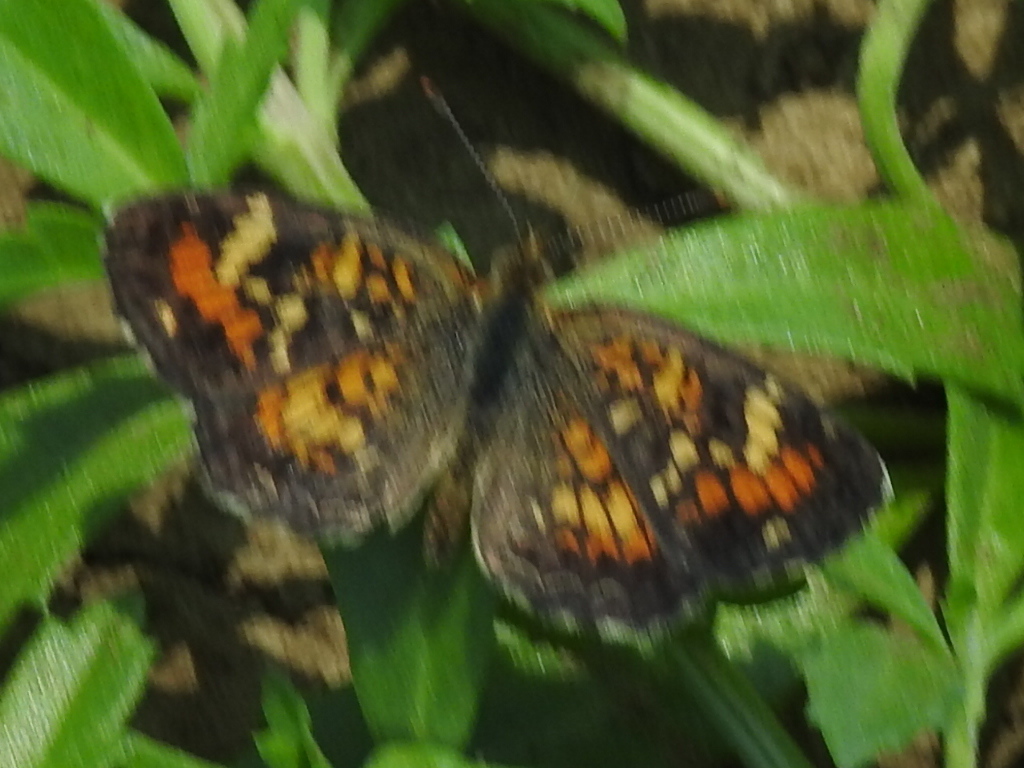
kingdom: Animalia
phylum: Arthropoda
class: Insecta
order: Lepidoptera
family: Nymphalidae
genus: Phyciodes
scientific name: Phyciodes phaon
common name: Phaon crescent
